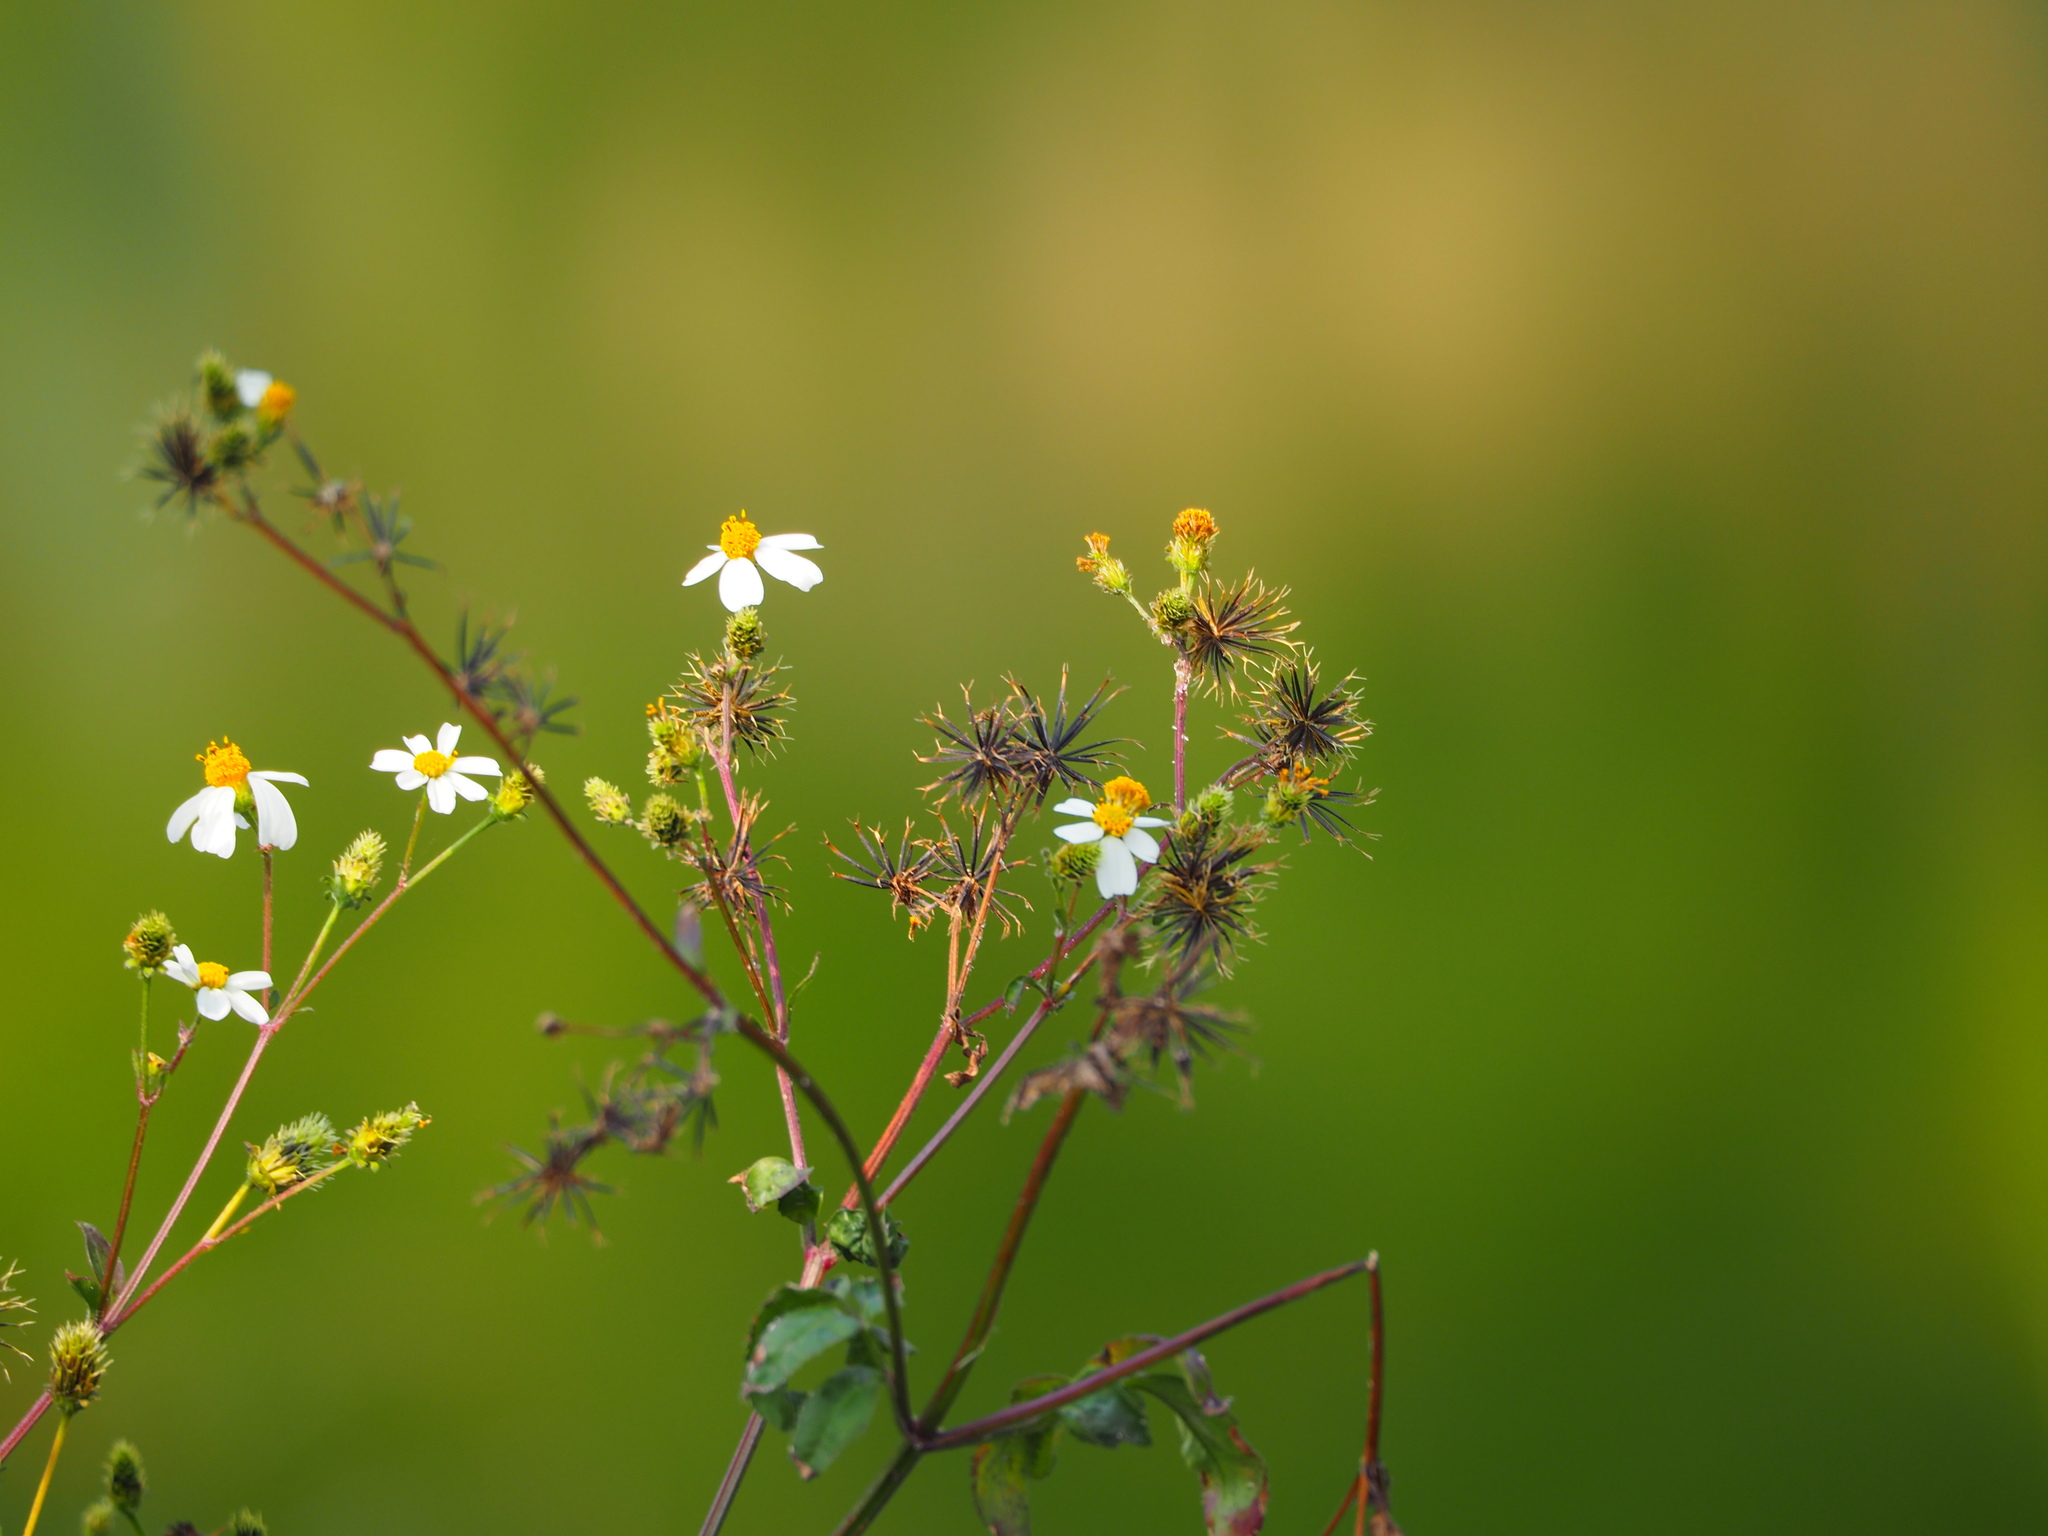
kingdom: Plantae
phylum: Tracheophyta
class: Magnoliopsida
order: Asterales
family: Asteraceae
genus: Bidens
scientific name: Bidens alba
